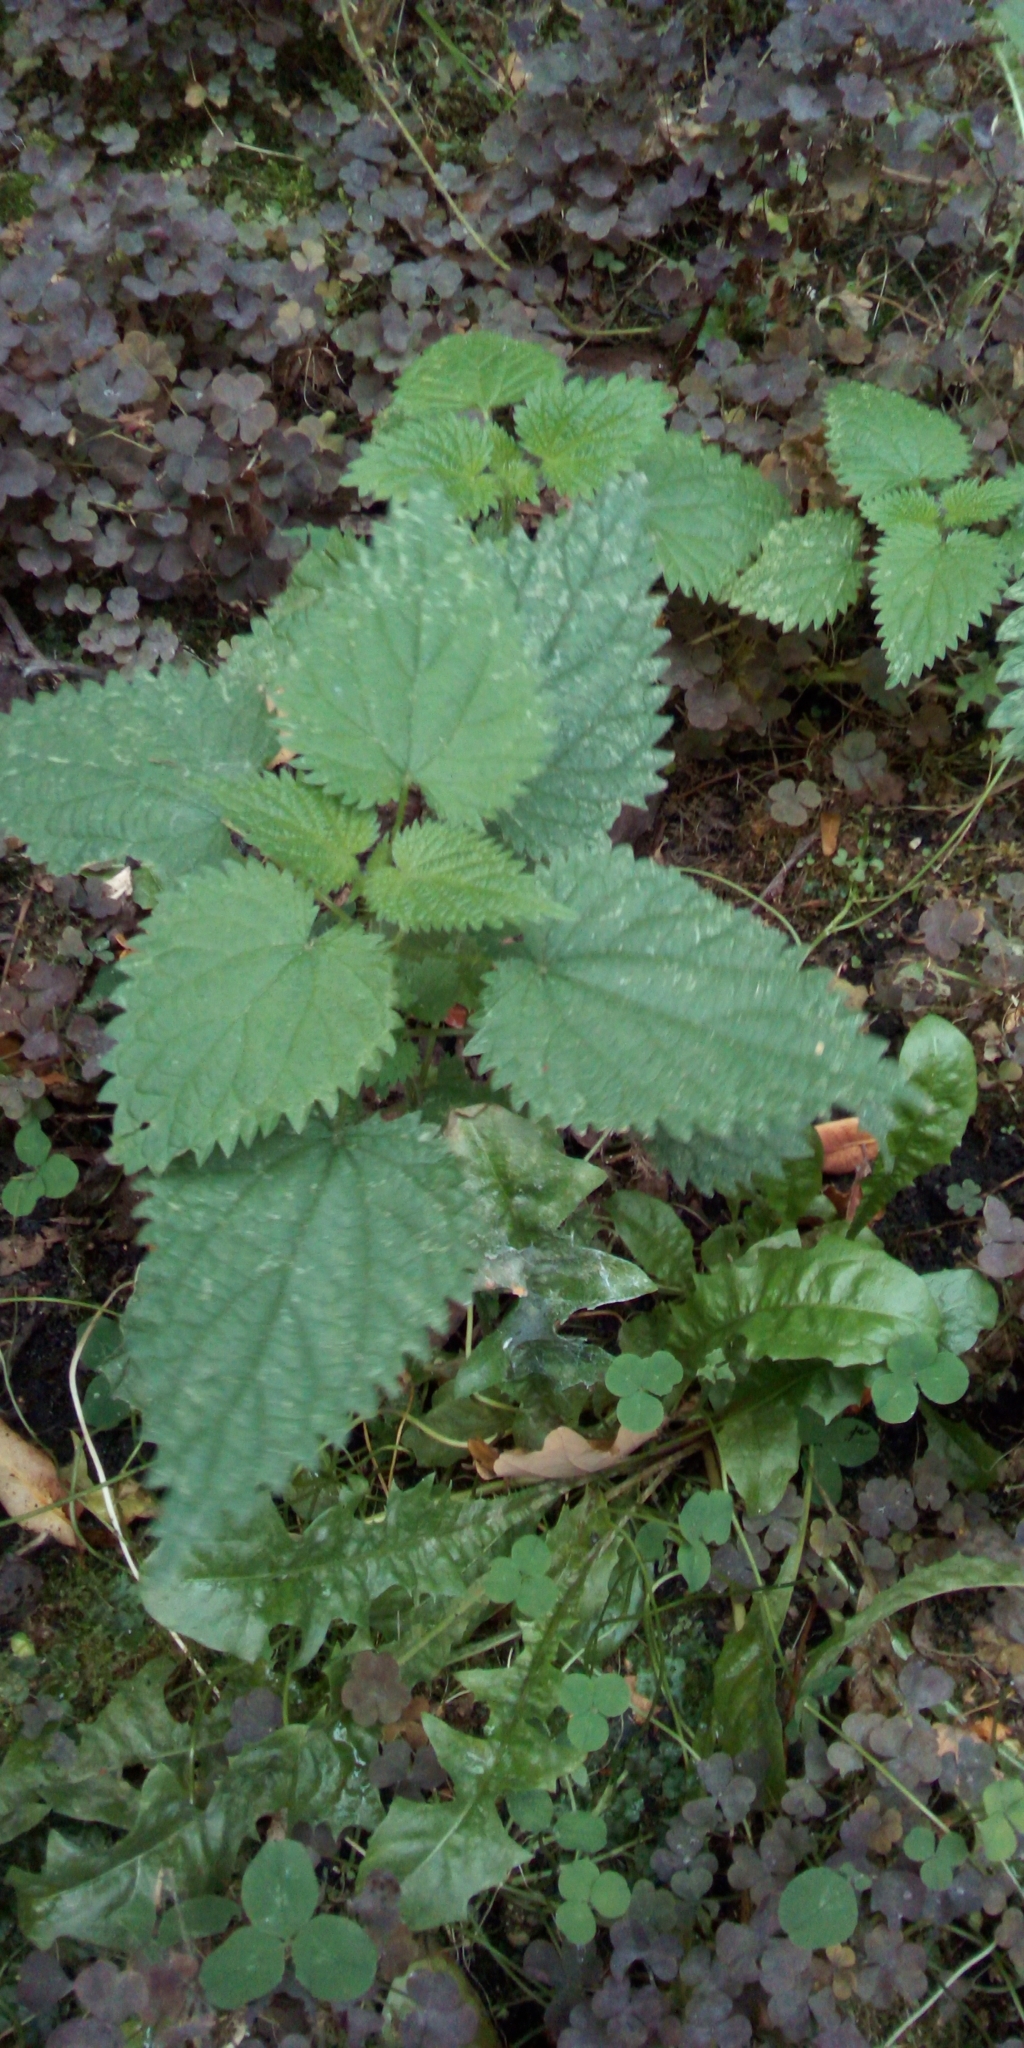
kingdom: Plantae
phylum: Tracheophyta
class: Magnoliopsida
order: Rosales
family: Urticaceae
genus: Urtica
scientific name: Urtica dioica
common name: Common nettle
